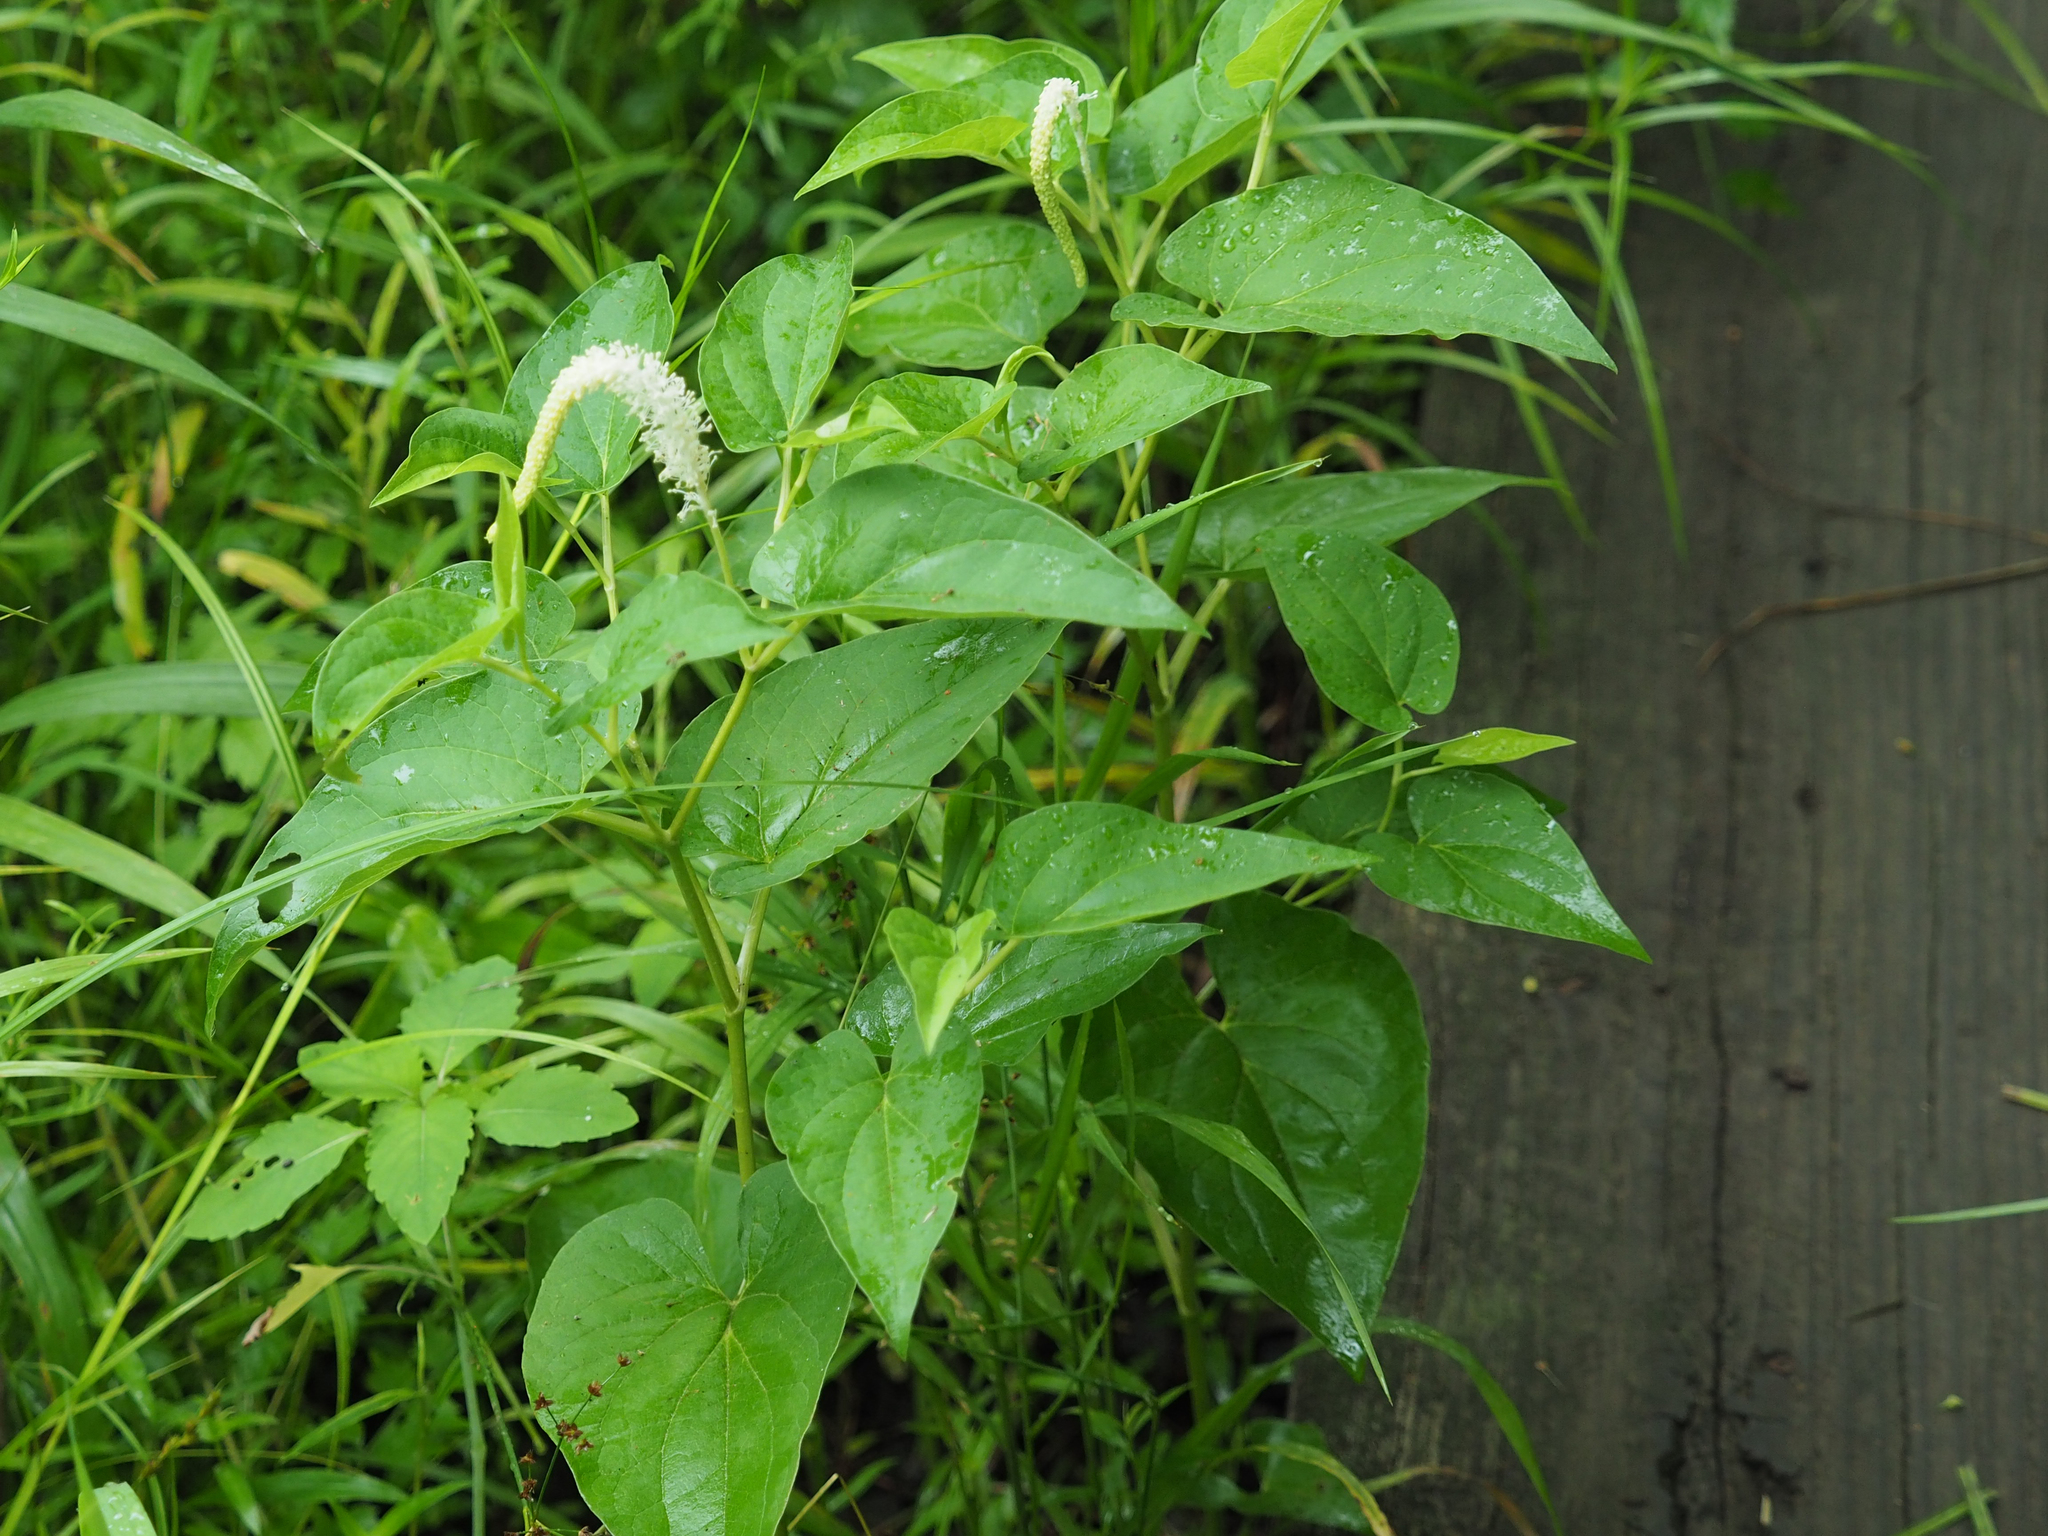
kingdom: Plantae
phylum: Tracheophyta
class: Magnoliopsida
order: Piperales
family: Saururaceae
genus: Saururus
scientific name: Saururus cernuus
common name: Lizard's-tail
